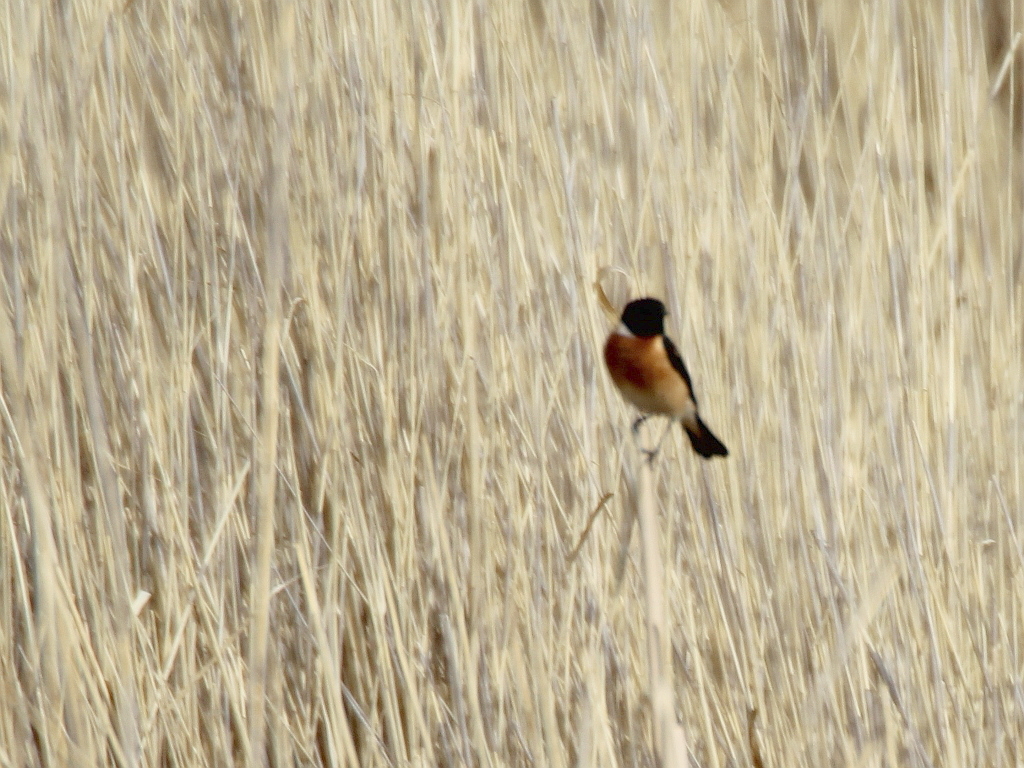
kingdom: Animalia
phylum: Chordata
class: Aves
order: Passeriformes
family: Muscicapidae
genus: Saxicola
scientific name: Saxicola maurus
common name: Siberian stonechat
